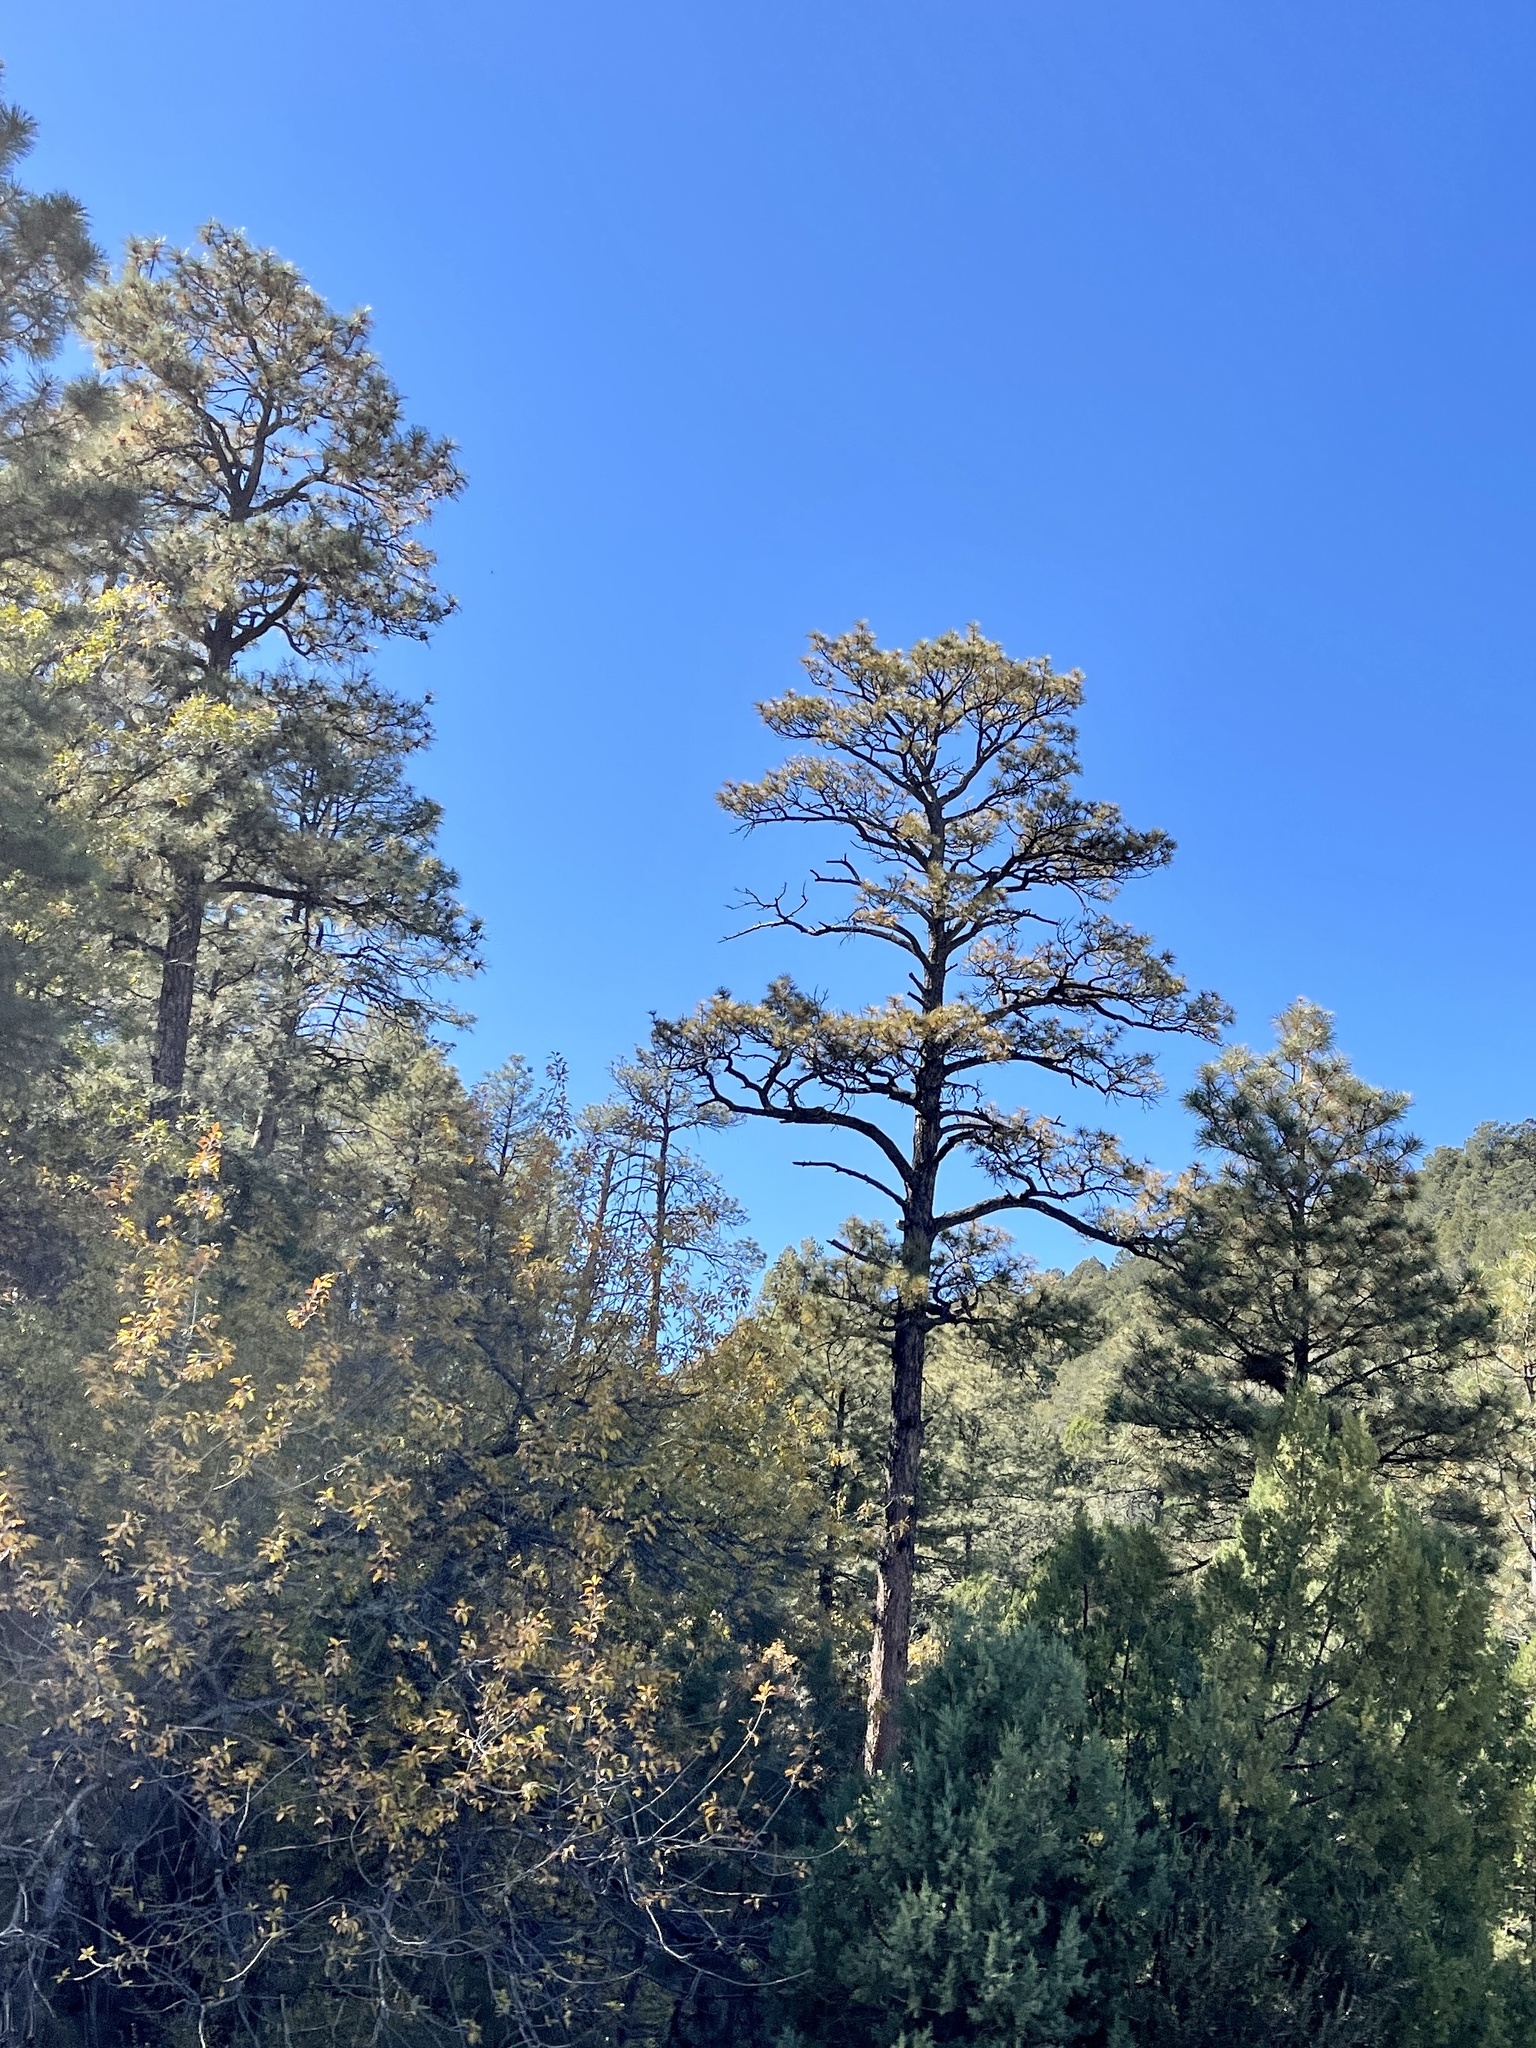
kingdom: Plantae
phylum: Tracheophyta
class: Pinopsida
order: Pinales
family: Pinaceae
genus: Pinus
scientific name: Pinus ponderosa
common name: Western yellow-pine
